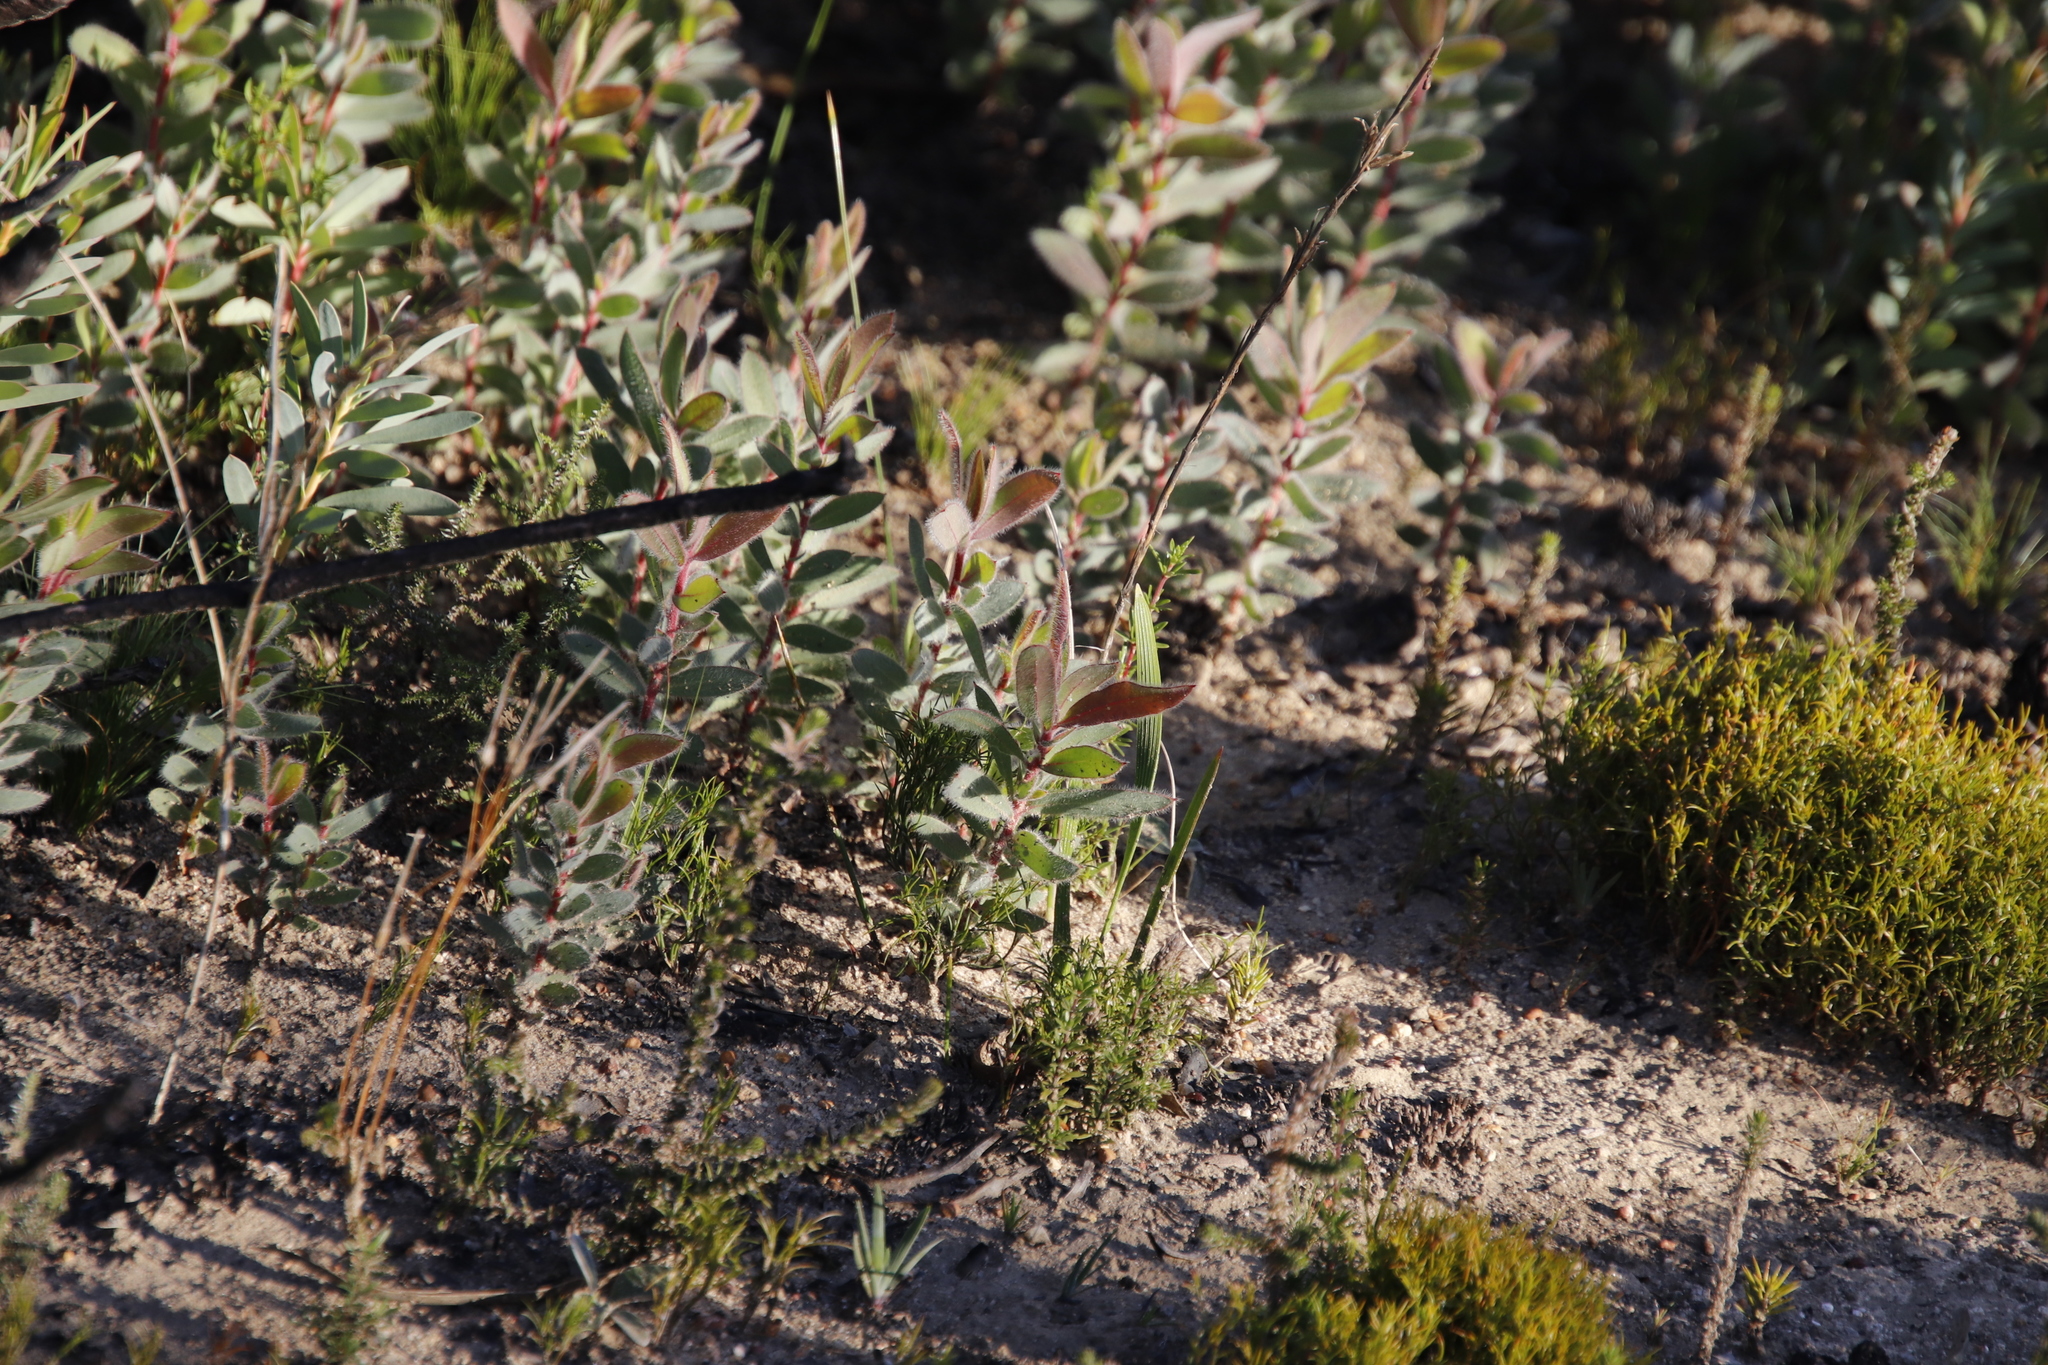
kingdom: Plantae
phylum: Tracheophyta
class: Magnoliopsida
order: Proteales
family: Proteaceae
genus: Protea
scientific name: Protea burchellii
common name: Burchell's sugarbush
